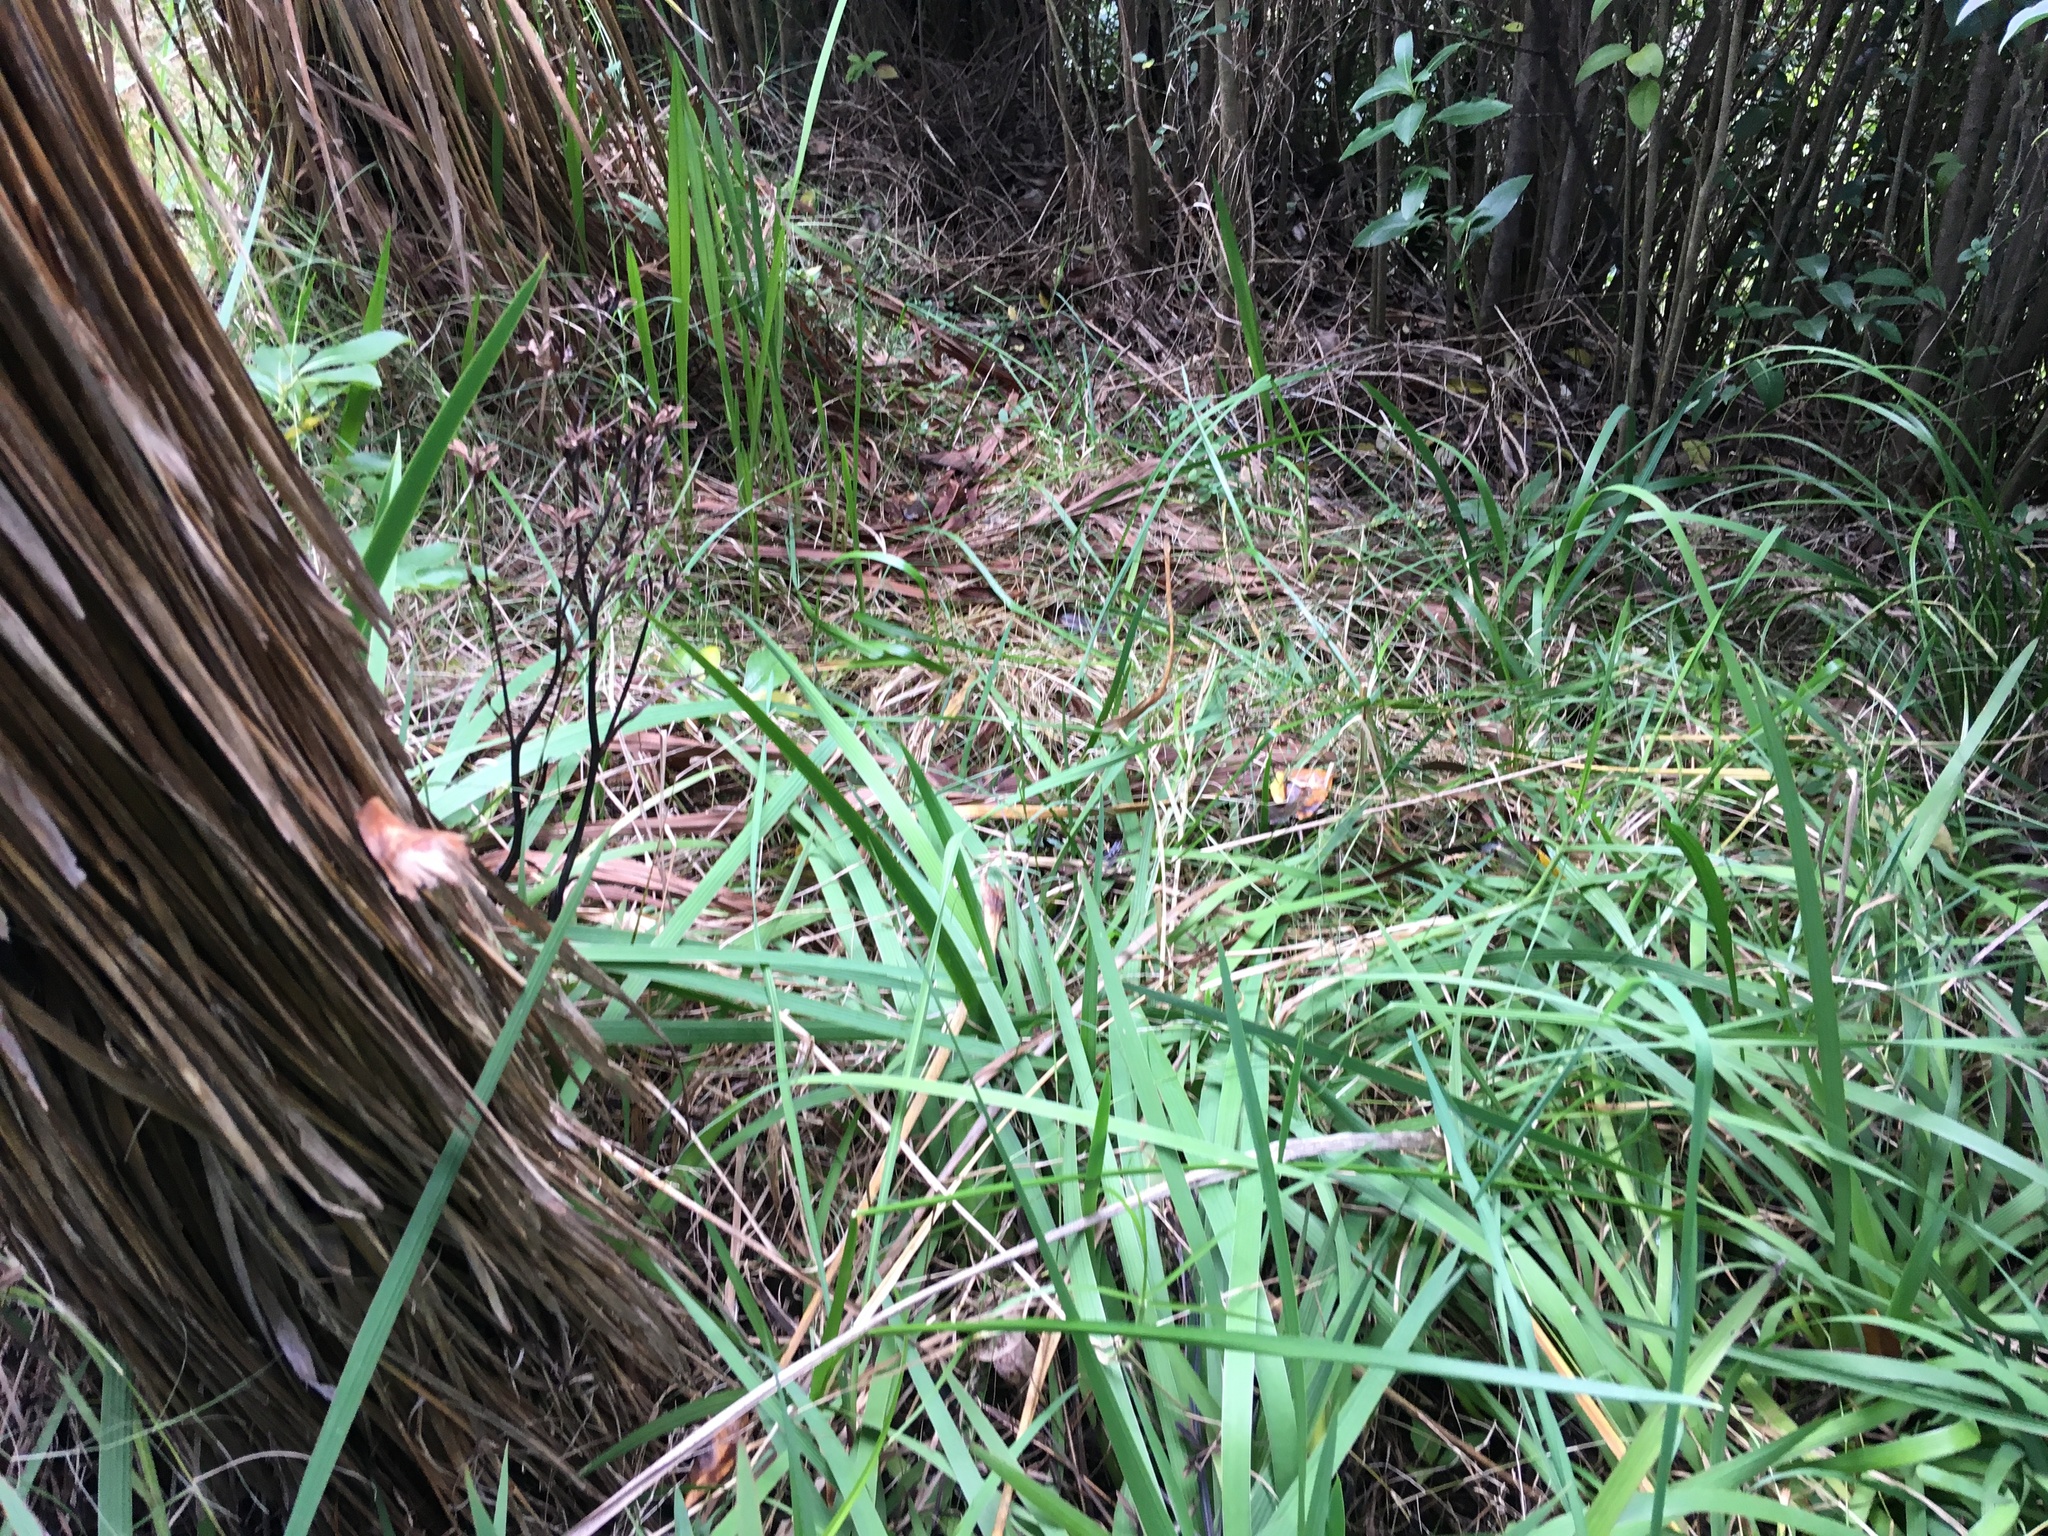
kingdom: Plantae
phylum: Tracheophyta
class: Liliopsida
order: Asparagales
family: Iridaceae
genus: Aristea
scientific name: Aristea ecklonii
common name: Blue corn-lily
